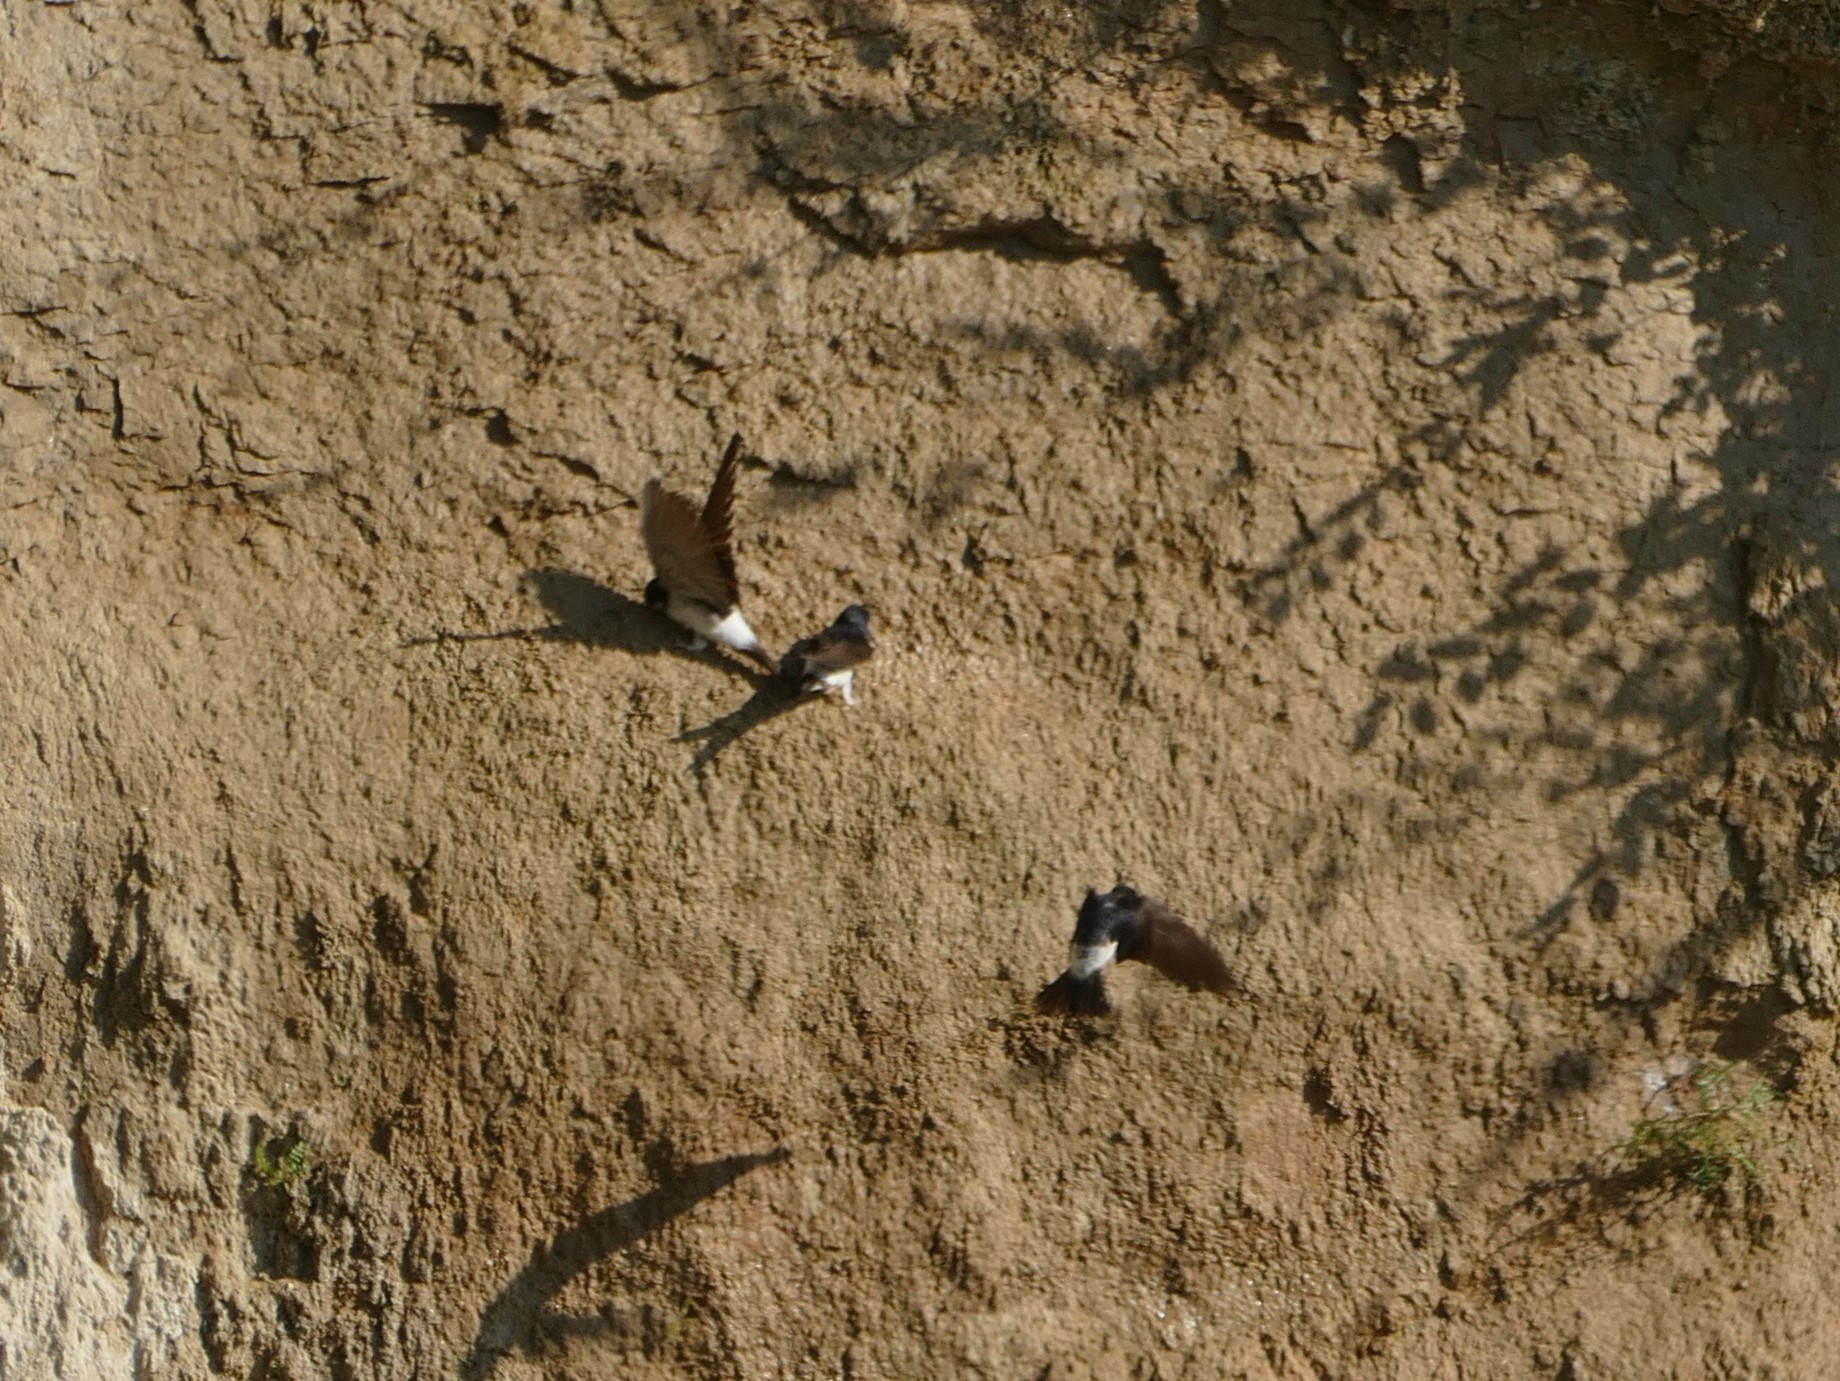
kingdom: Animalia
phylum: Chordata
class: Aves
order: Passeriformes
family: Hirundinidae
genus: Delichon
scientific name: Delichon urbicum
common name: Common house martin
